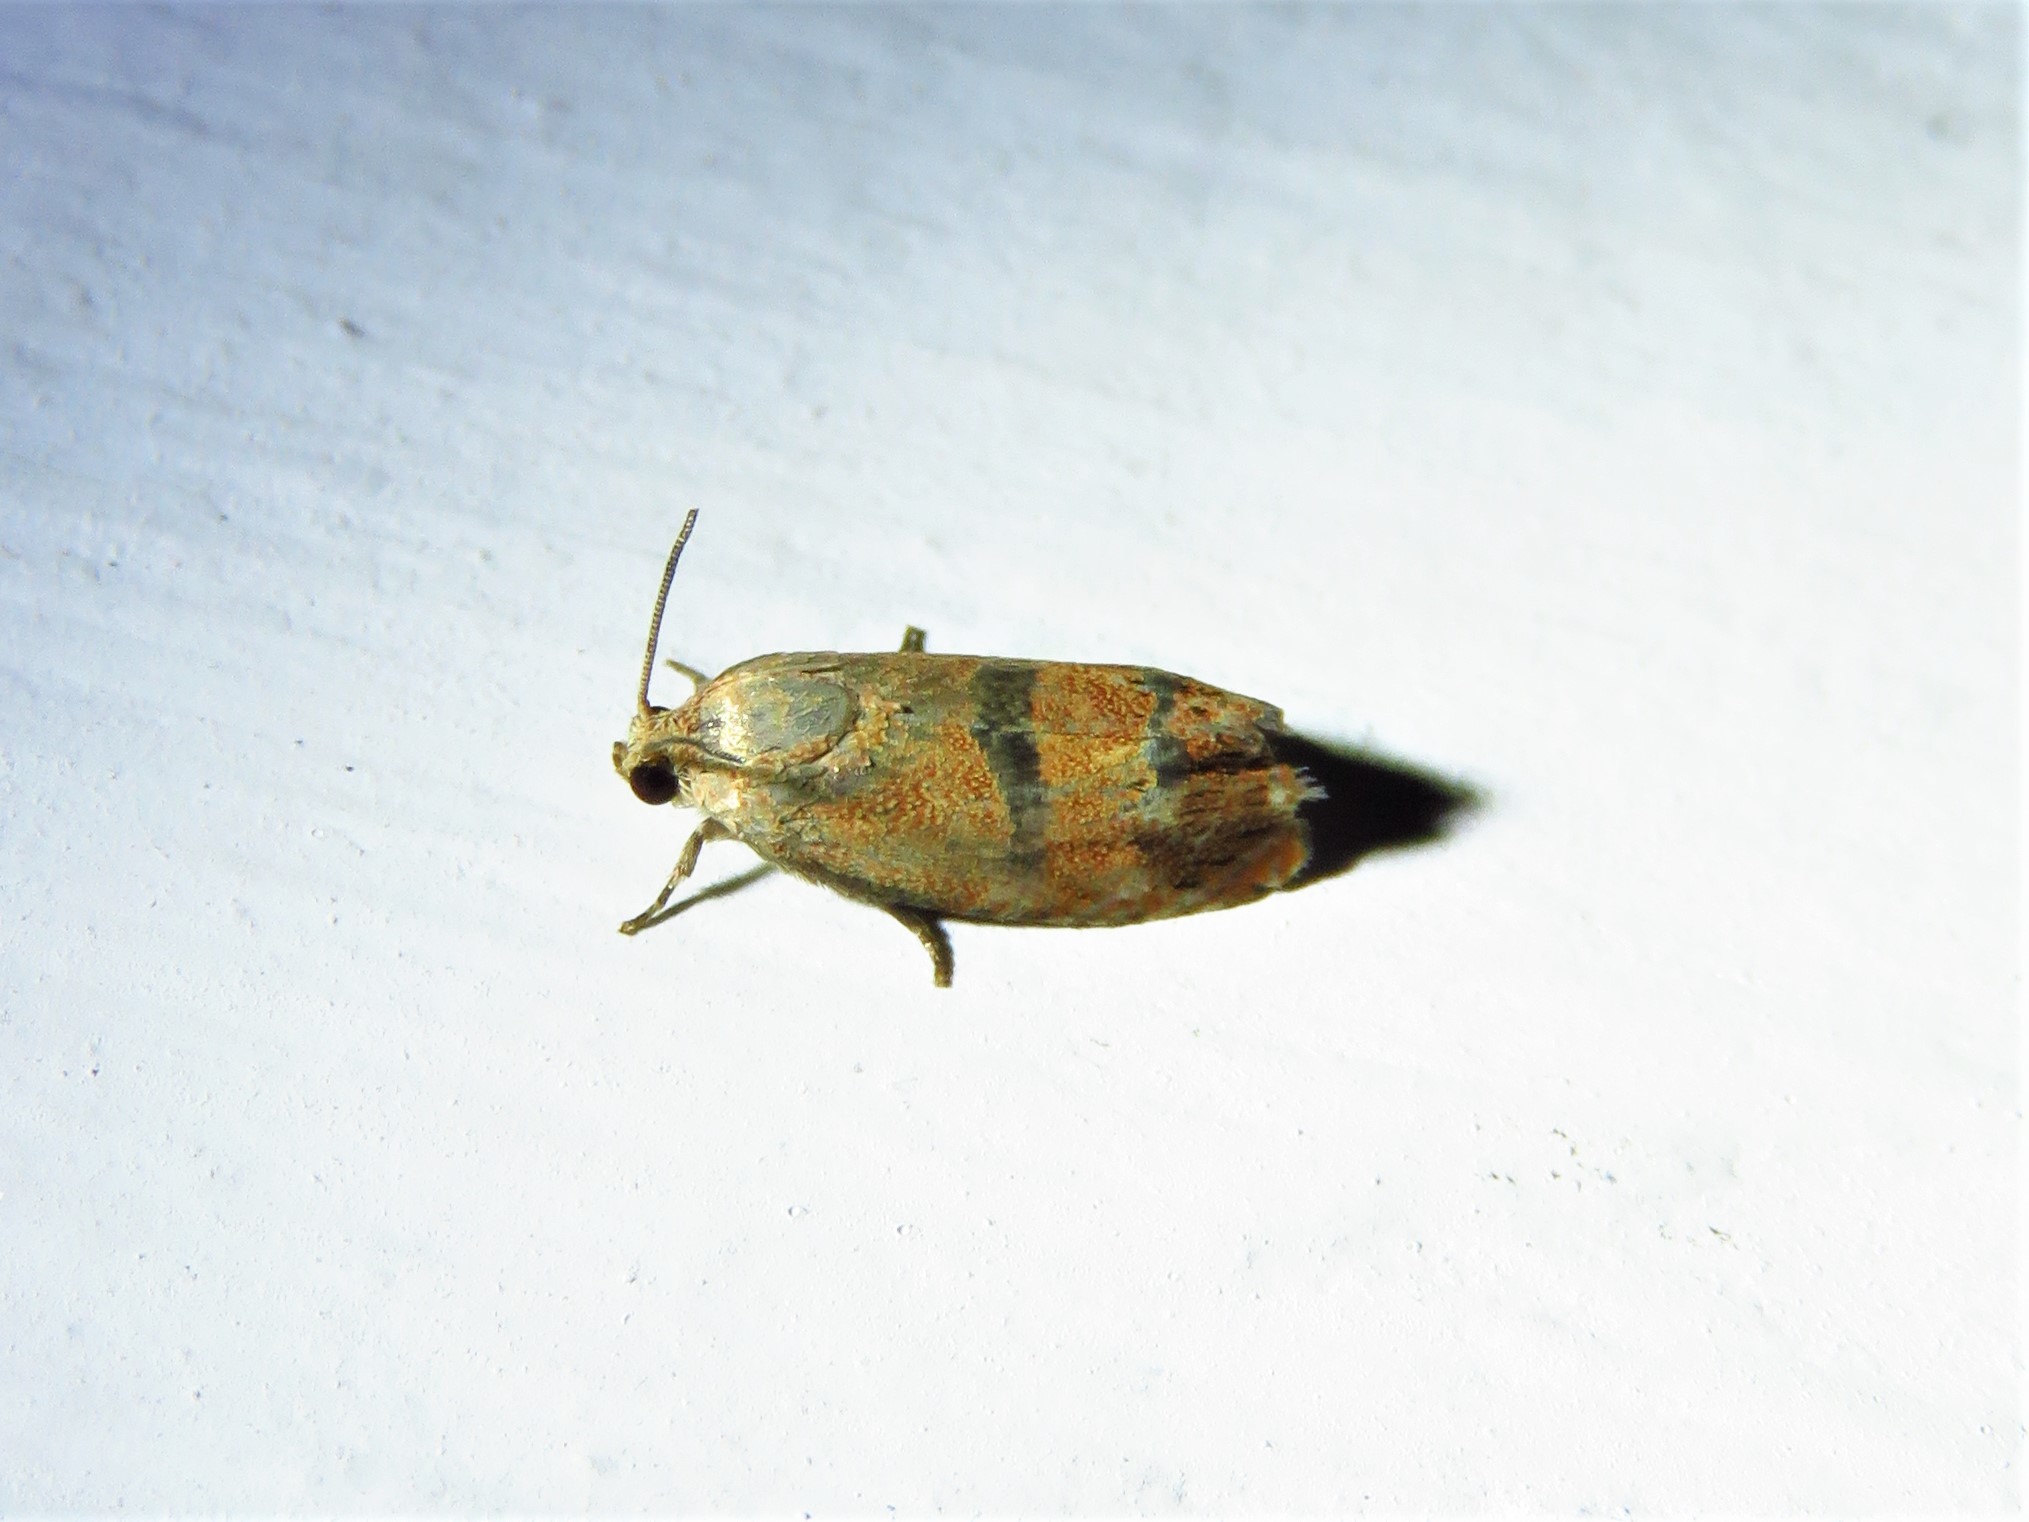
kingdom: Animalia
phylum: Arthropoda
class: Insecta
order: Lepidoptera
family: Tortricidae
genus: Cydia
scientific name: Cydia latiferreana
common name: Filbertworm moth
